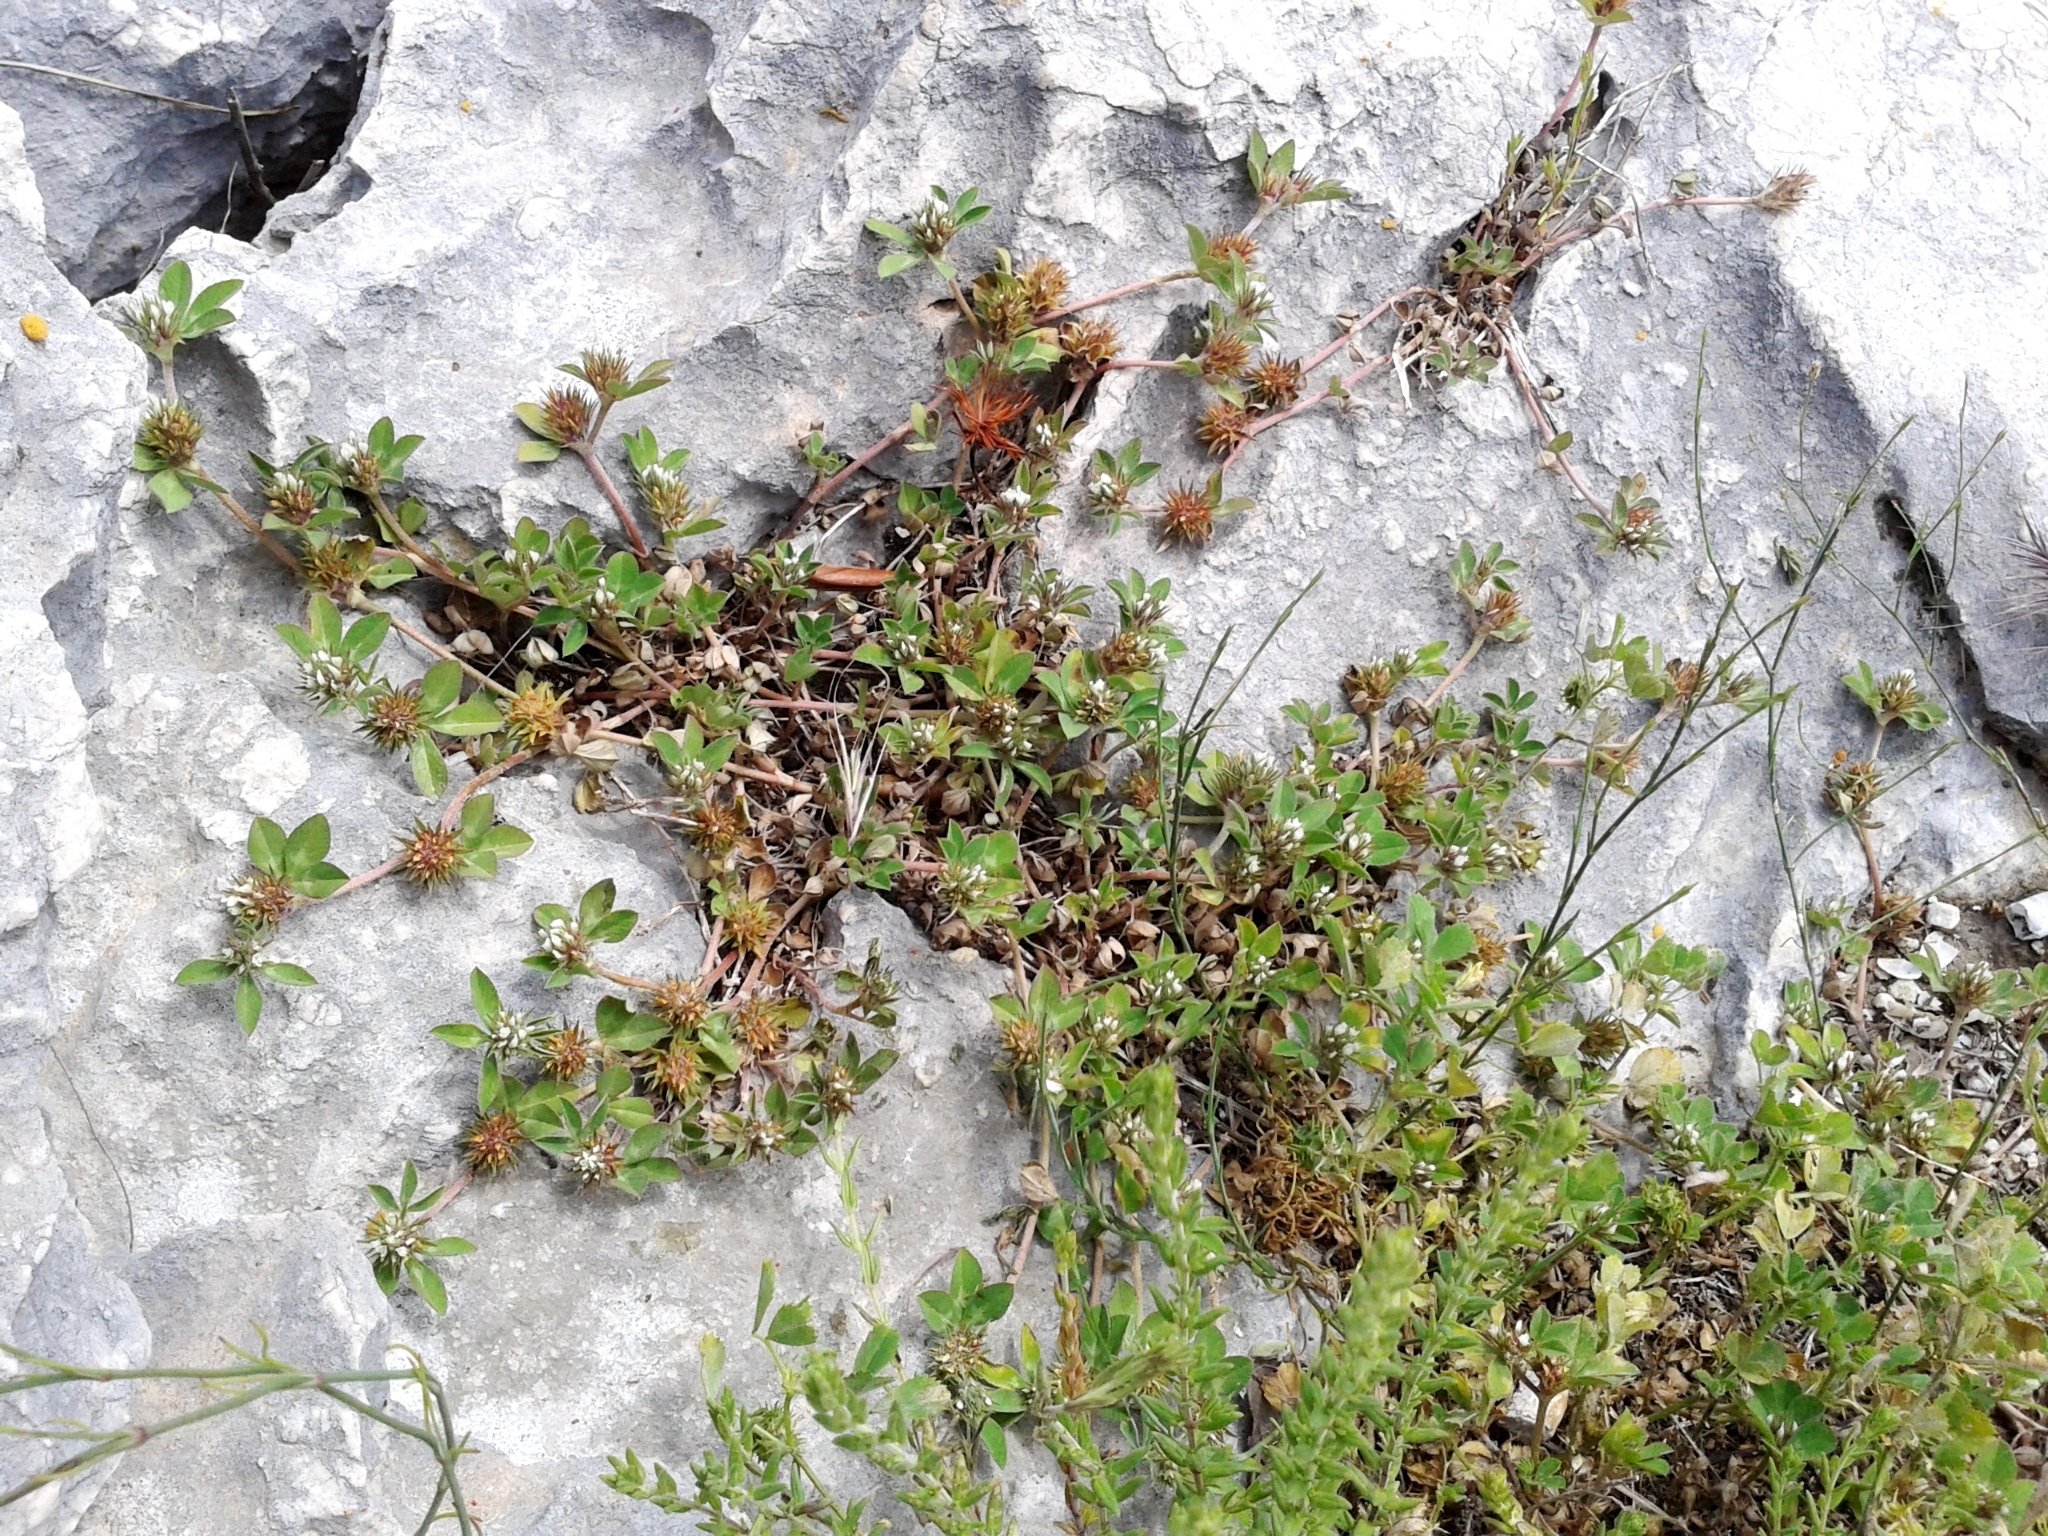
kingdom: Plantae
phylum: Tracheophyta
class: Magnoliopsida
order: Fabales
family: Fabaceae
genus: Trifolium
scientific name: Trifolium scabrum
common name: Rough clover
